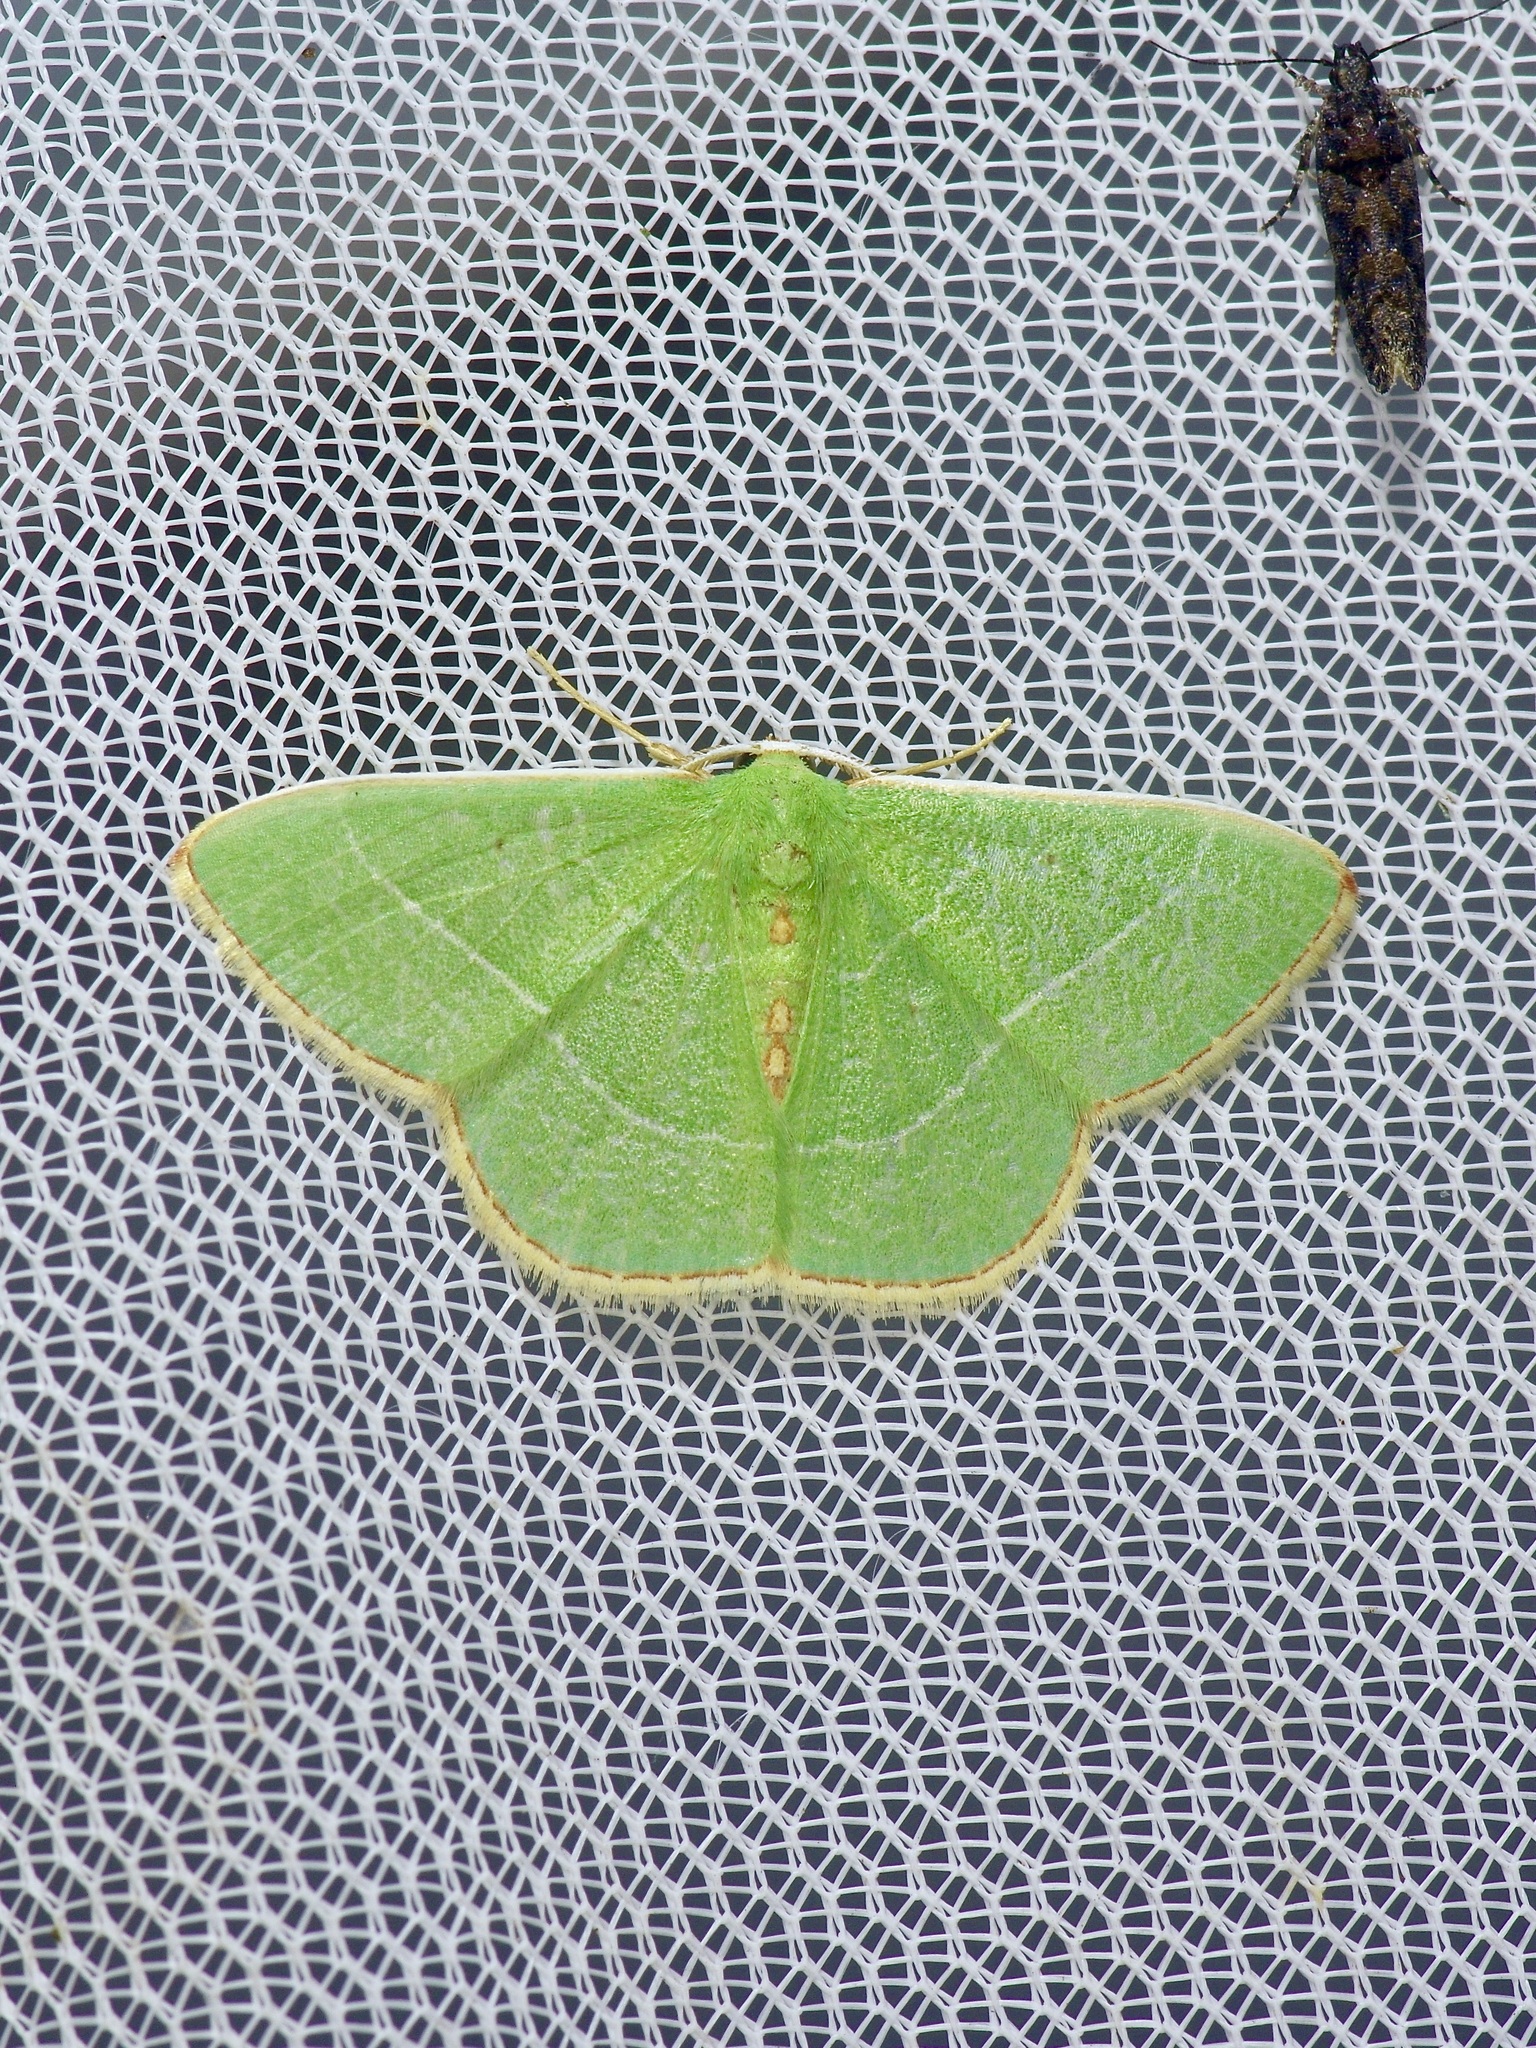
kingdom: Animalia
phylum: Arthropoda
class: Insecta
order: Lepidoptera
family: Geometridae
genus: Nemoria
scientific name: Nemoria bistriaria
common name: Red-fringed emerald
